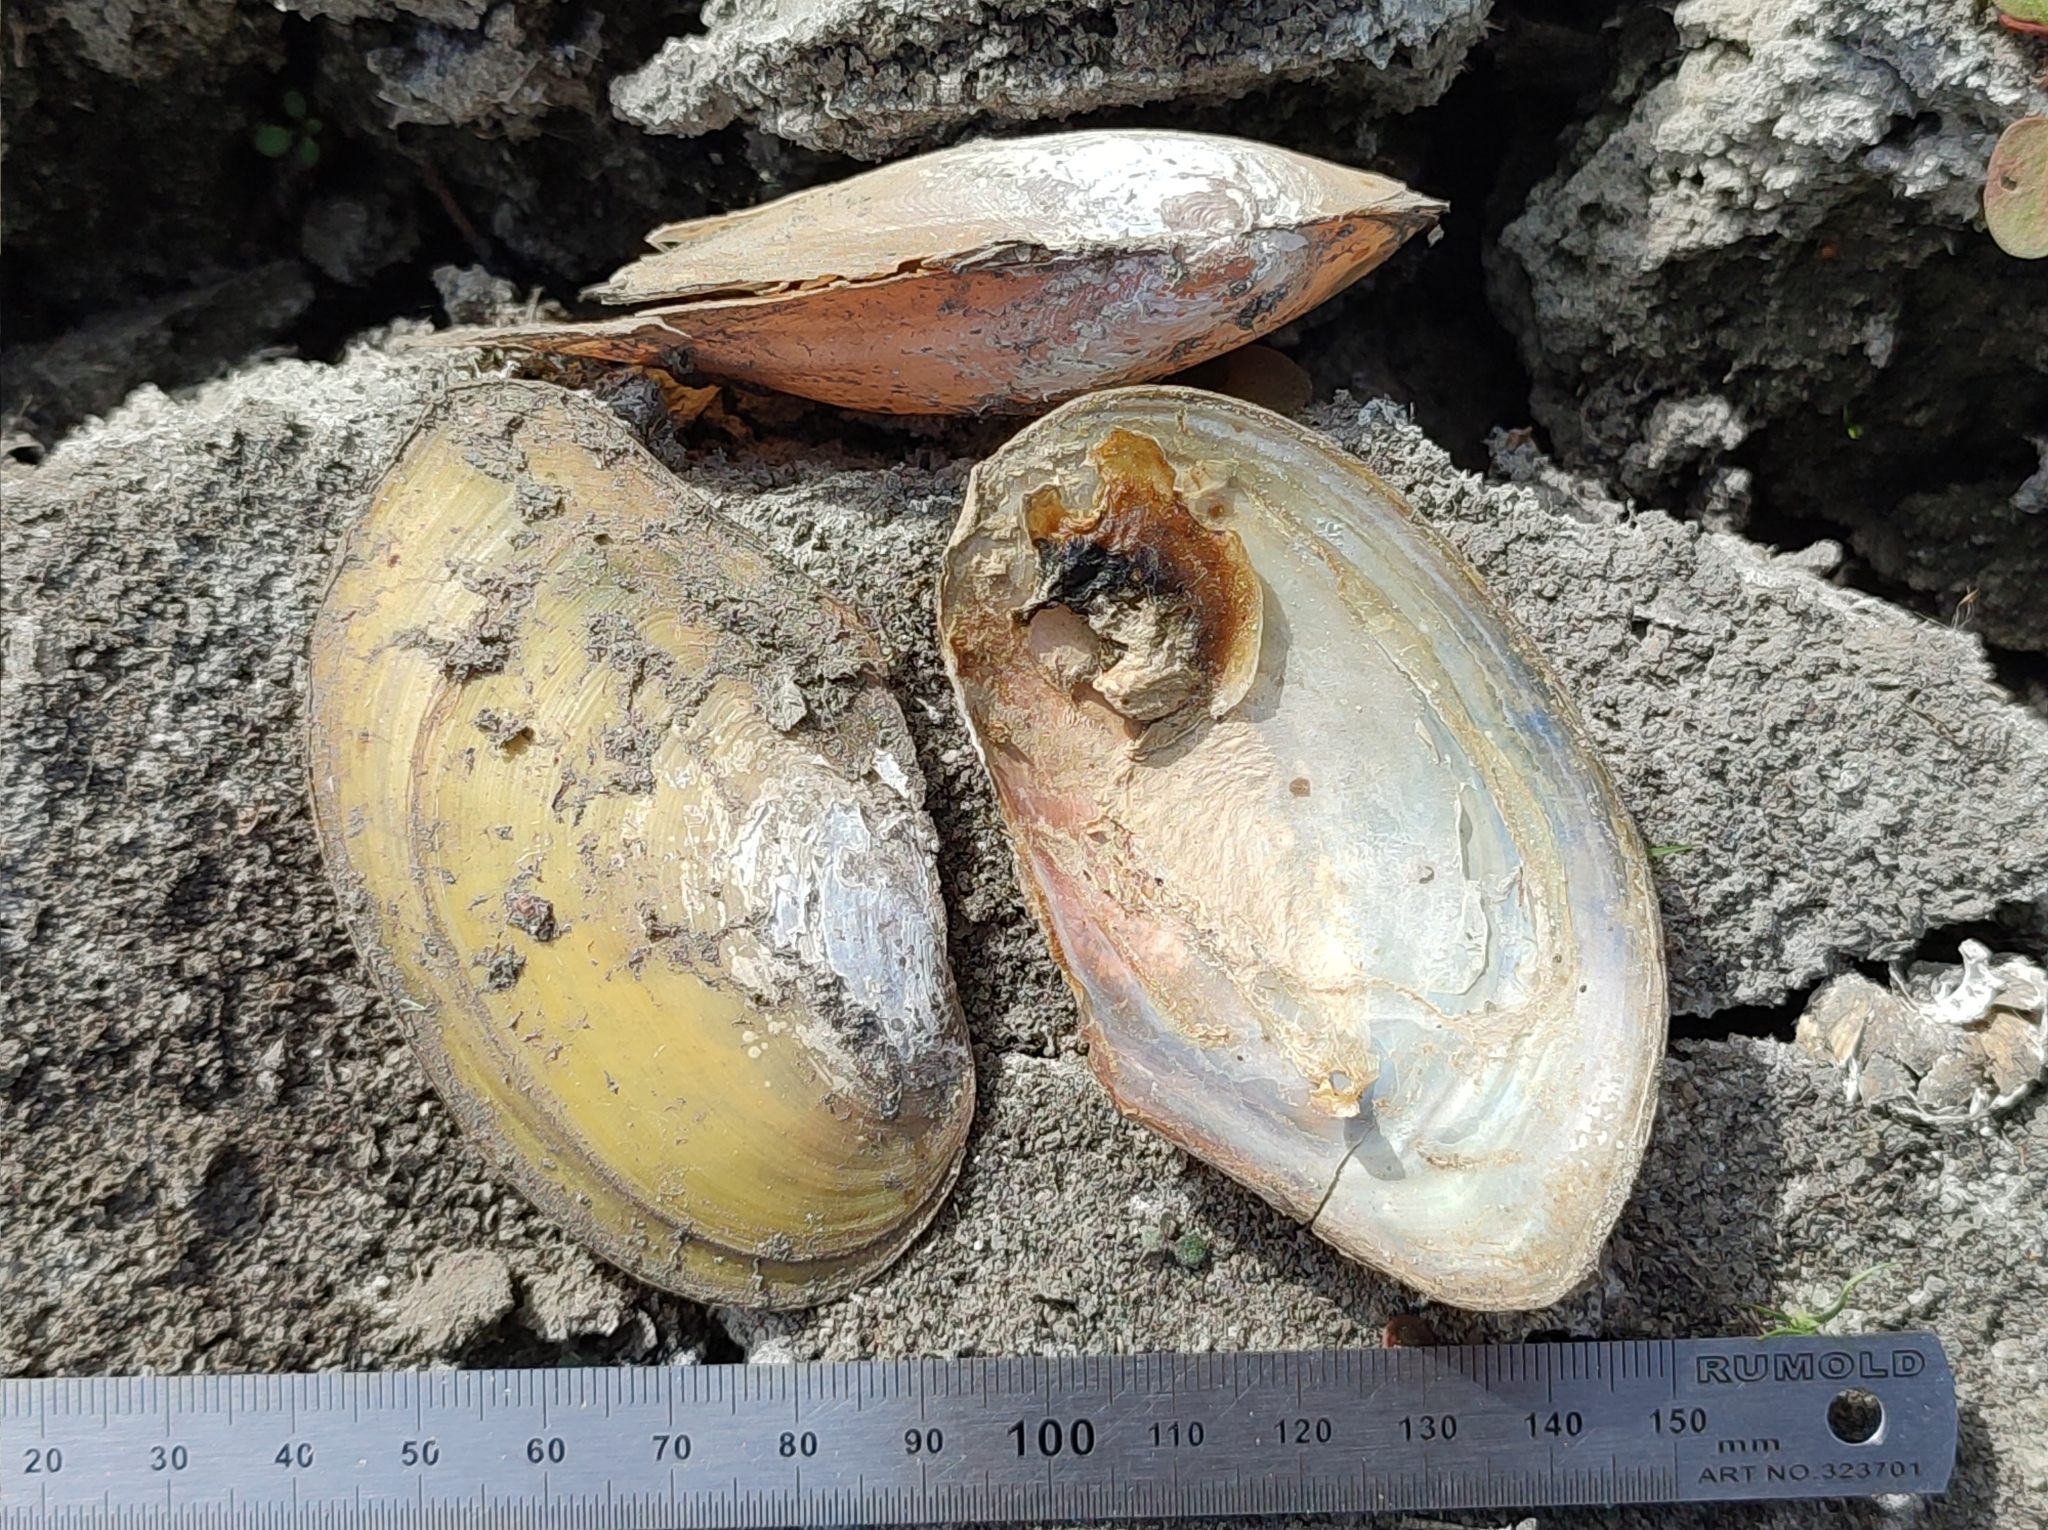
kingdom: Animalia
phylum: Mollusca
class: Bivalvia
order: Unionida
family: Unionidae
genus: Anodonta
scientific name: Anodonta anatina
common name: Duck mussel
